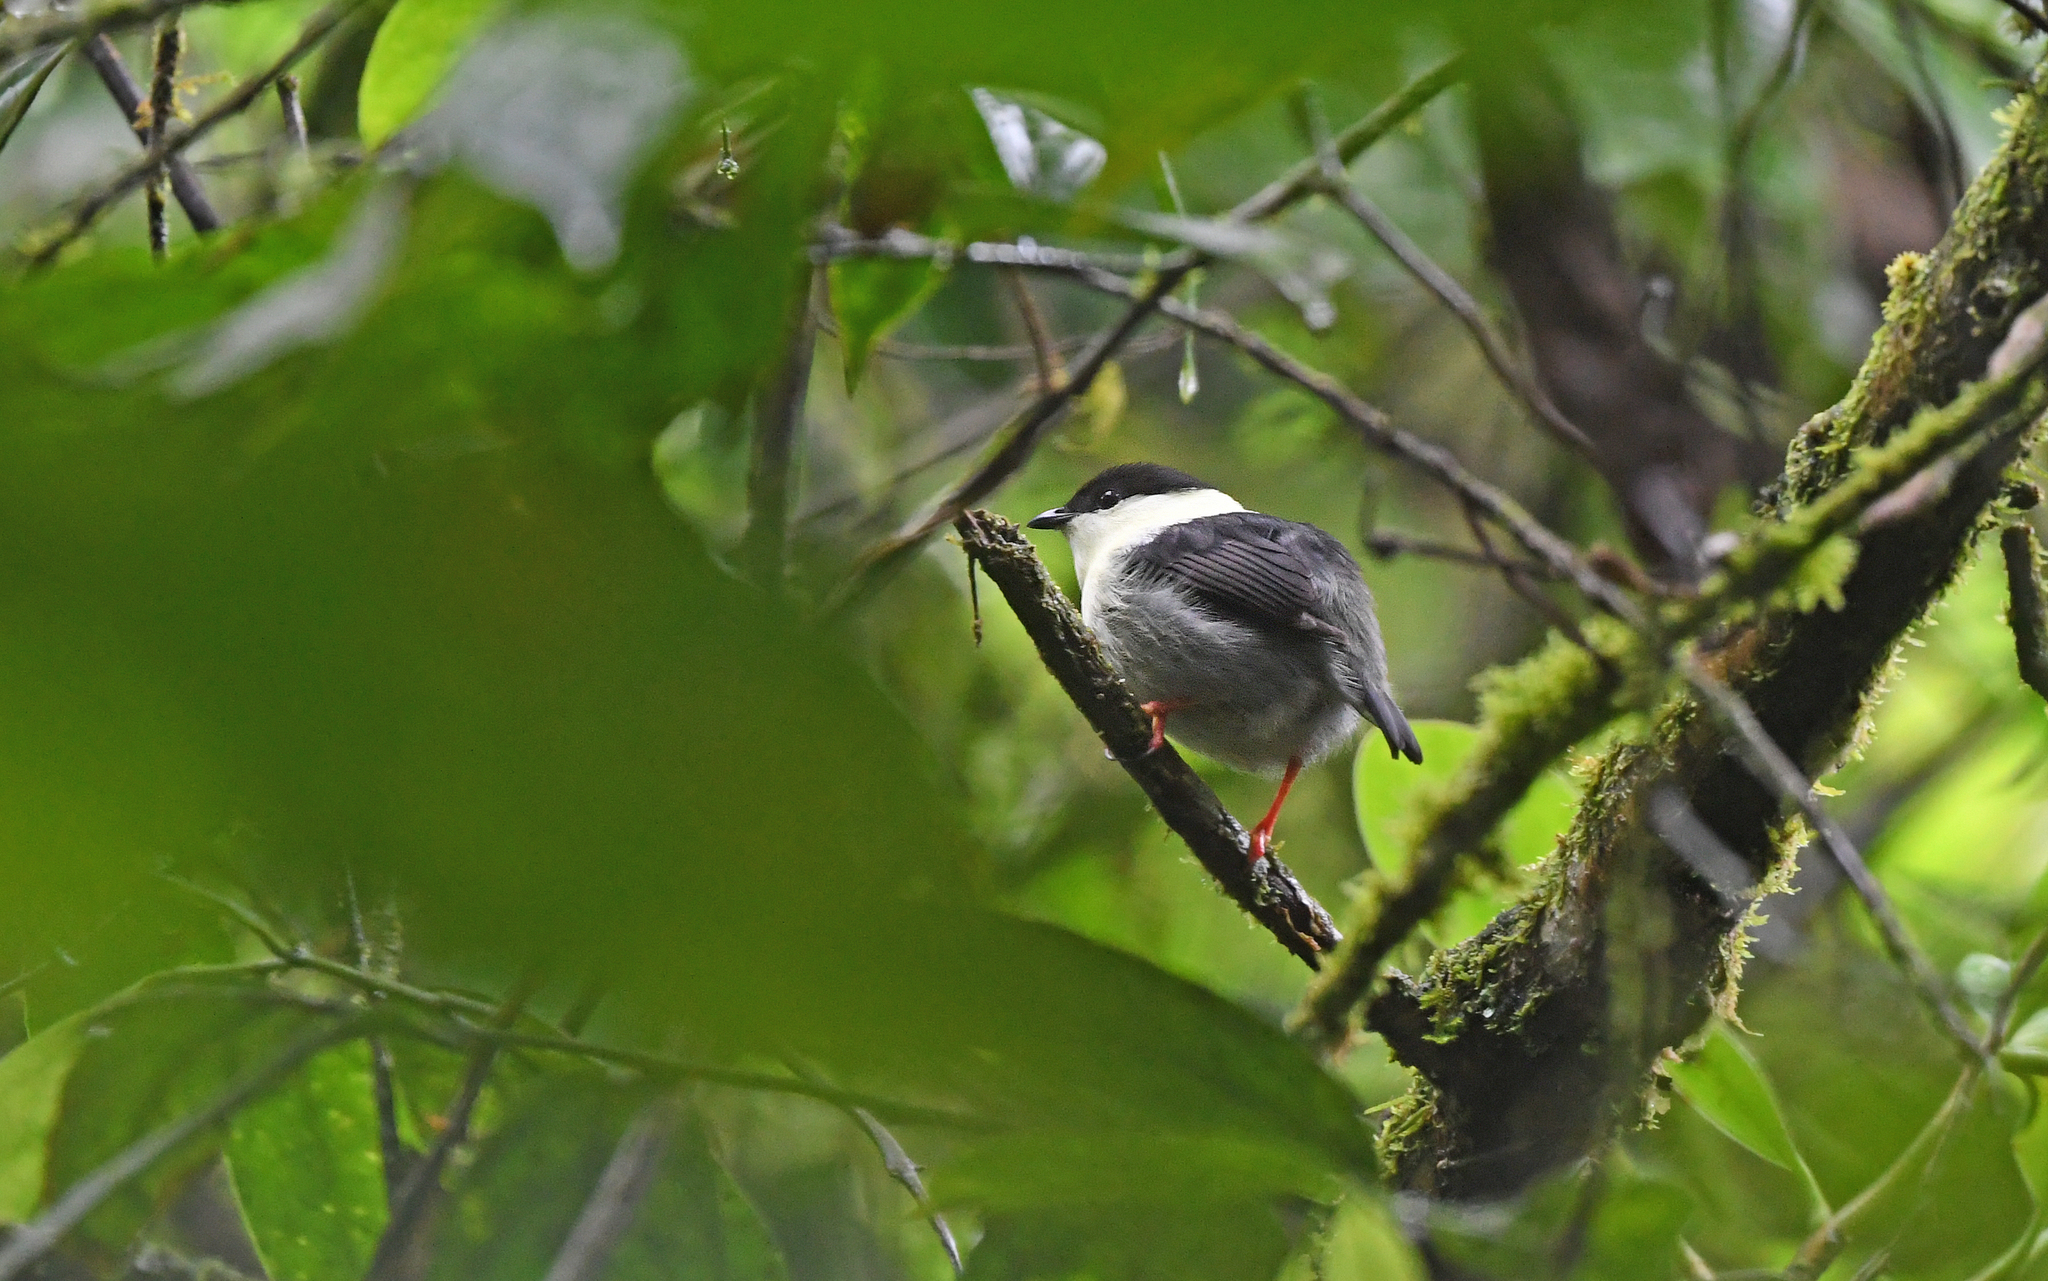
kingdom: Animalia
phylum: Chordata
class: Aves
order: Passeriformes
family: Pipridae
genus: Manacus
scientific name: Manacus manacus
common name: White-bearded manakin
